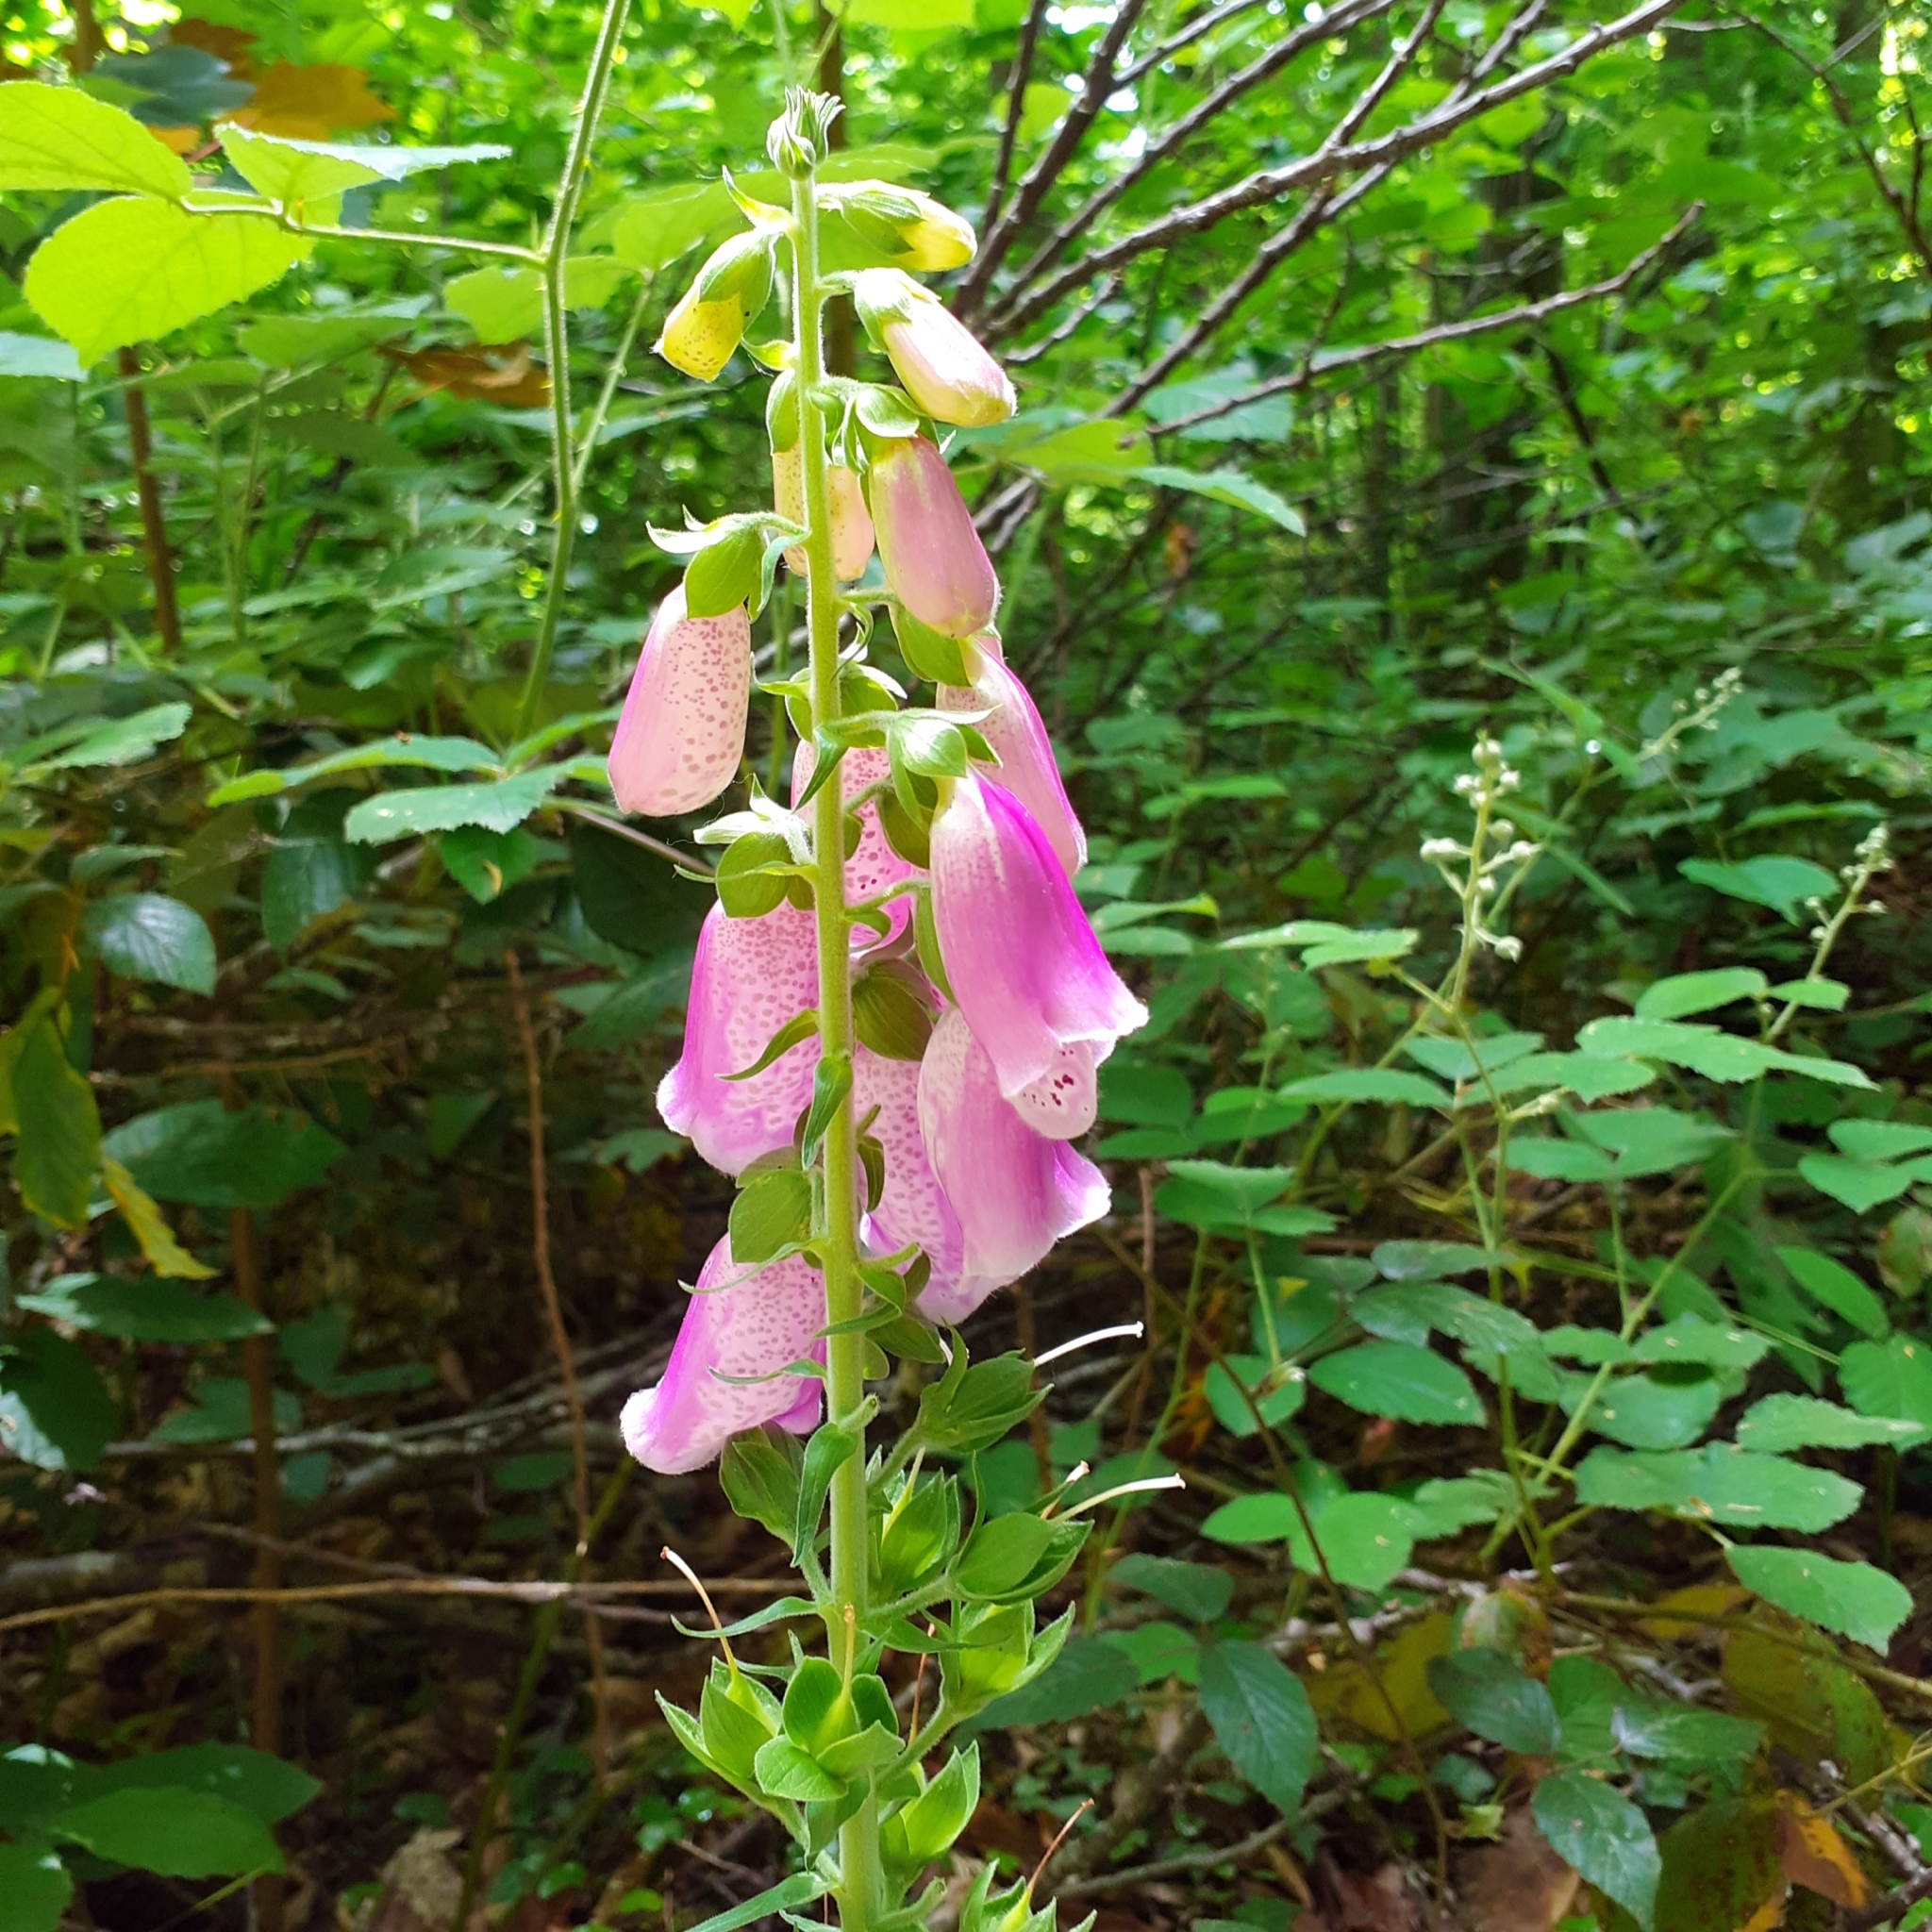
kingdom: Plantae
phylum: Tracheophyta
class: Magnoliopsida
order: Lamiales
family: Plantaginaceae
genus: Digitalis
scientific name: Digitalis purpurea
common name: Foxglove
